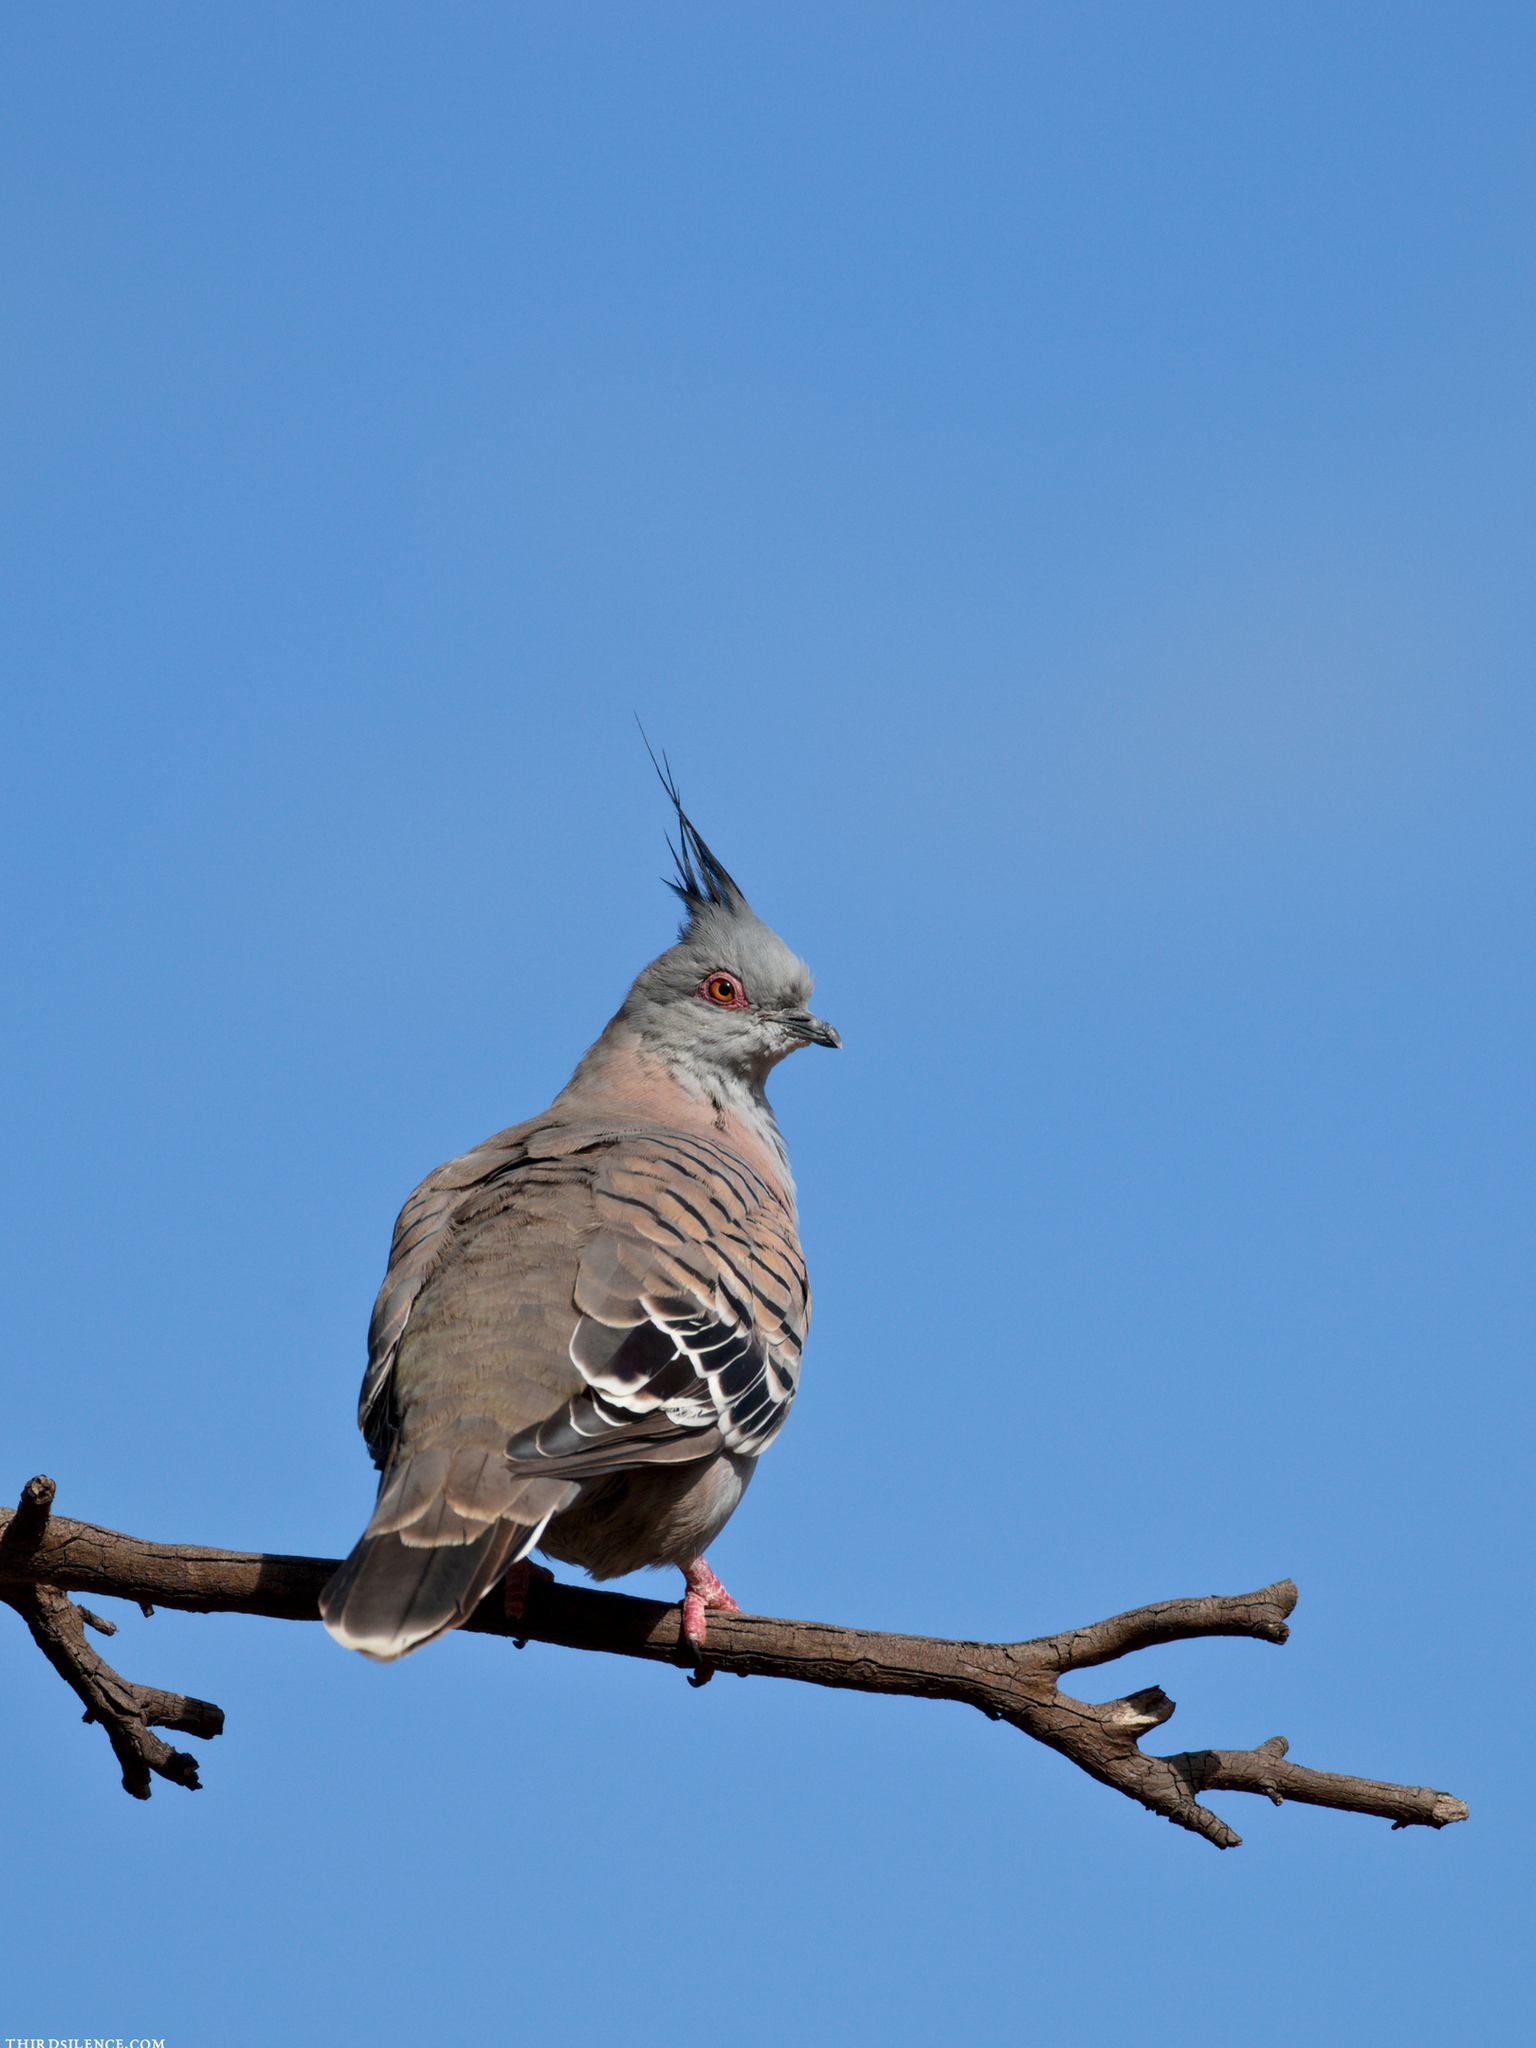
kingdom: Animalia
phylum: Chordata
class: Aves
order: Columbiformes
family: Columbidae
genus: Ocyphaps
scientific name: Ocyphaps lophotes
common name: Crested pigeon
